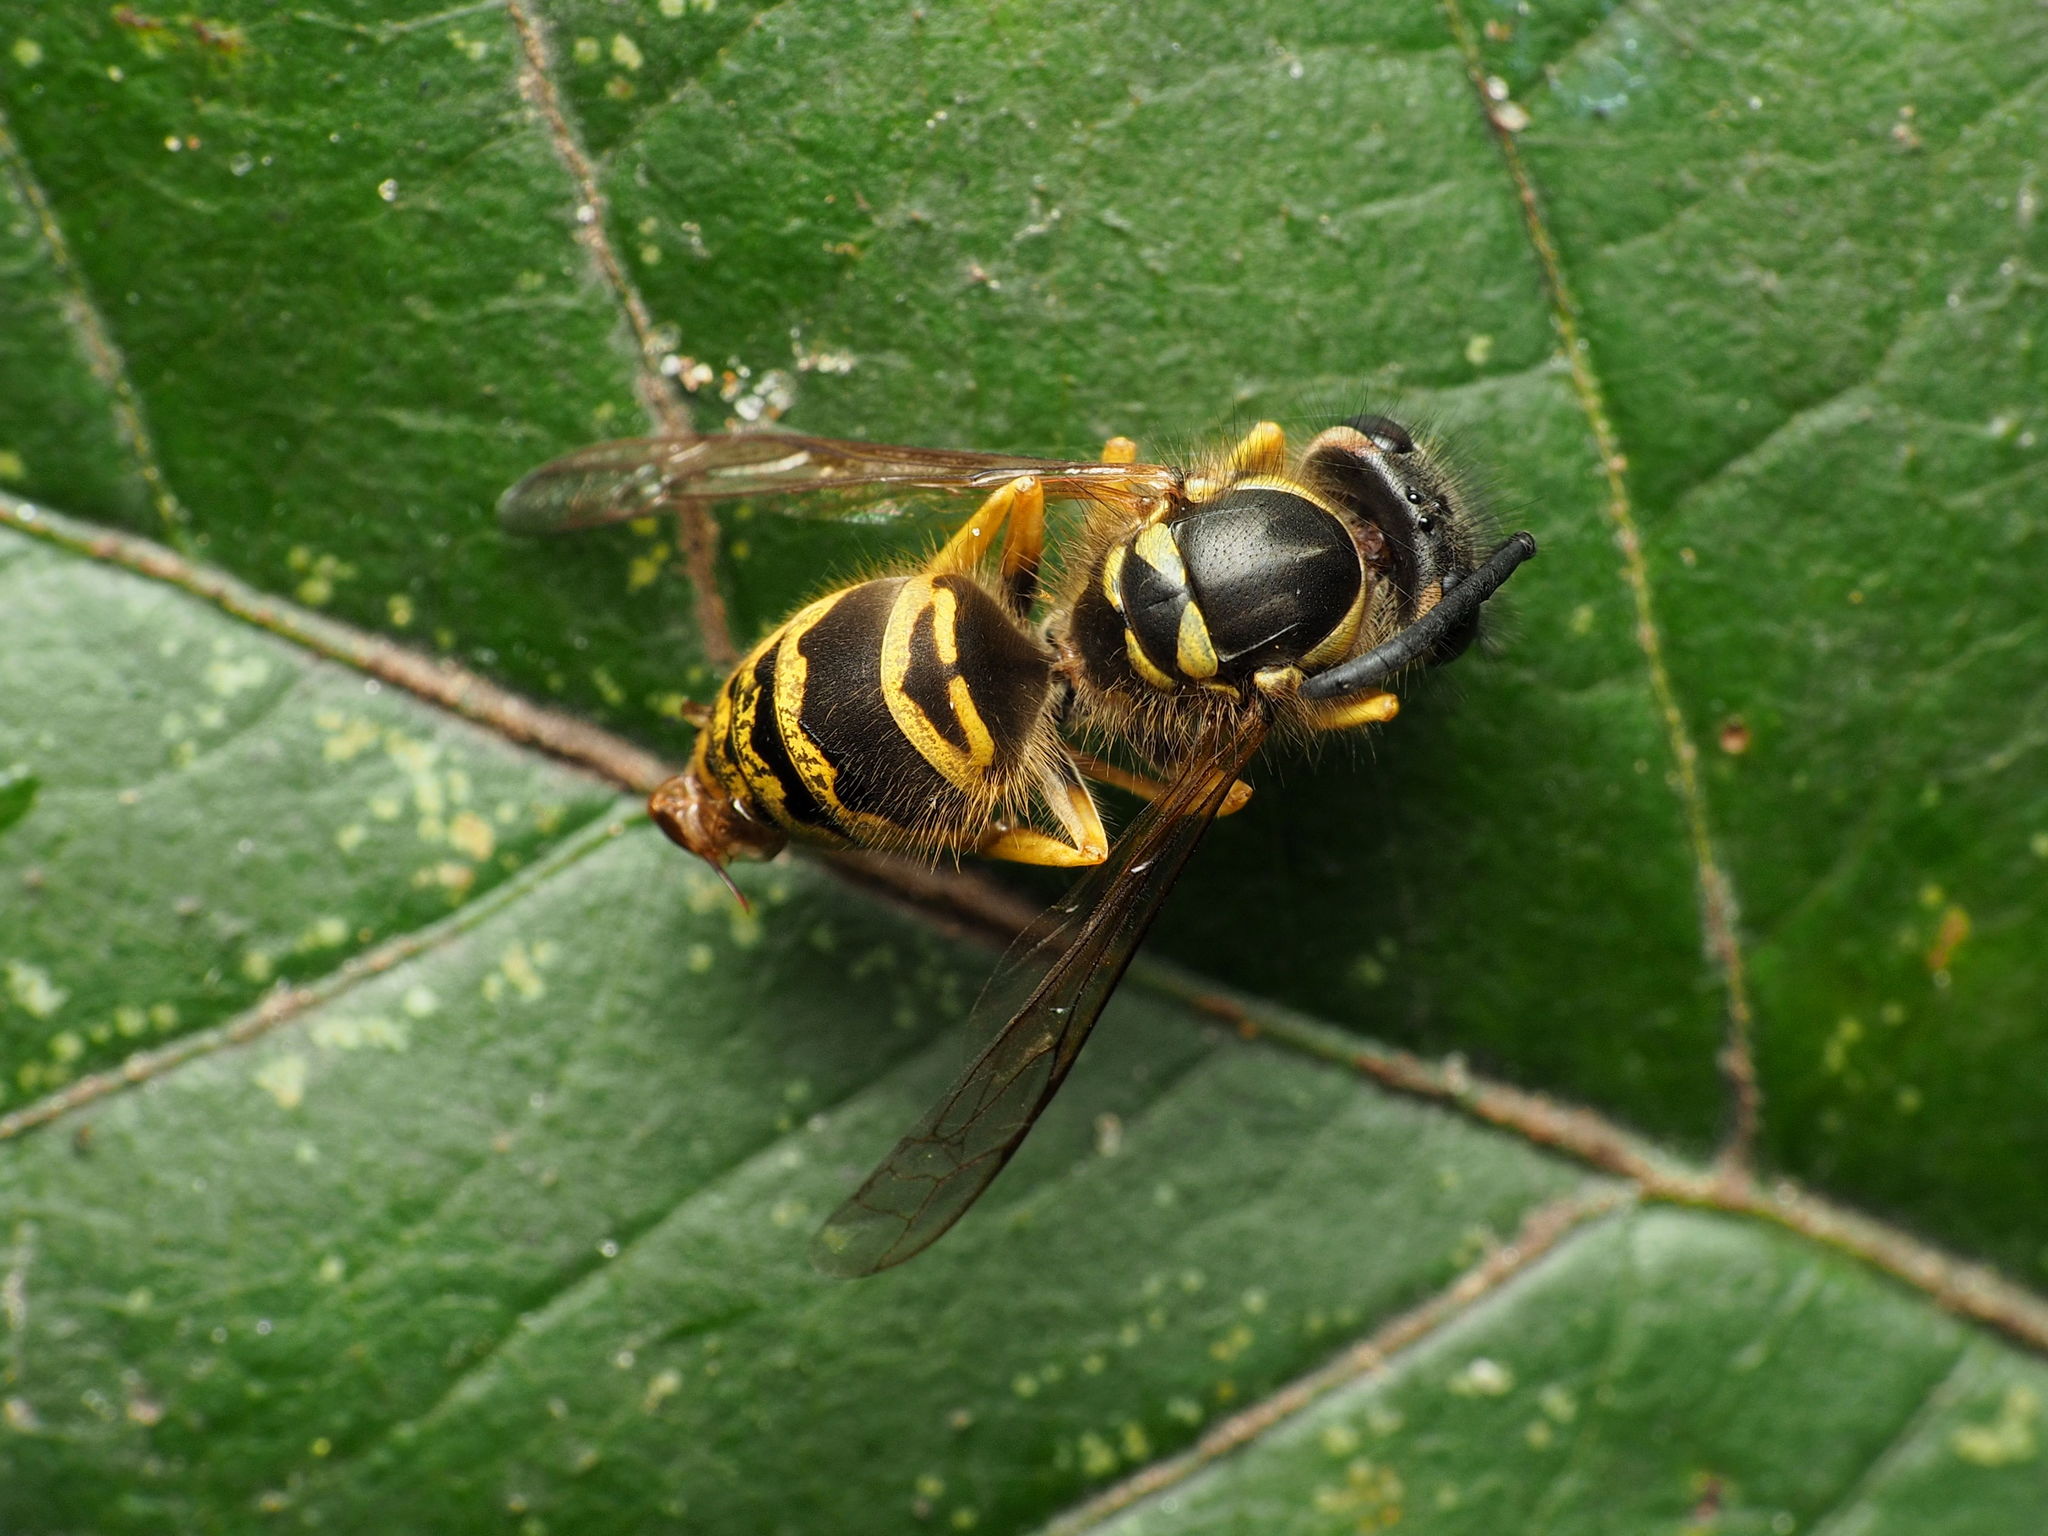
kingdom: Animalia
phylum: Arthropoda
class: Insecta
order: Hymenoptera
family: Vespidae
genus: Vespula
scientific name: Vespula maculifrons
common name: Eastern yellowjacket
